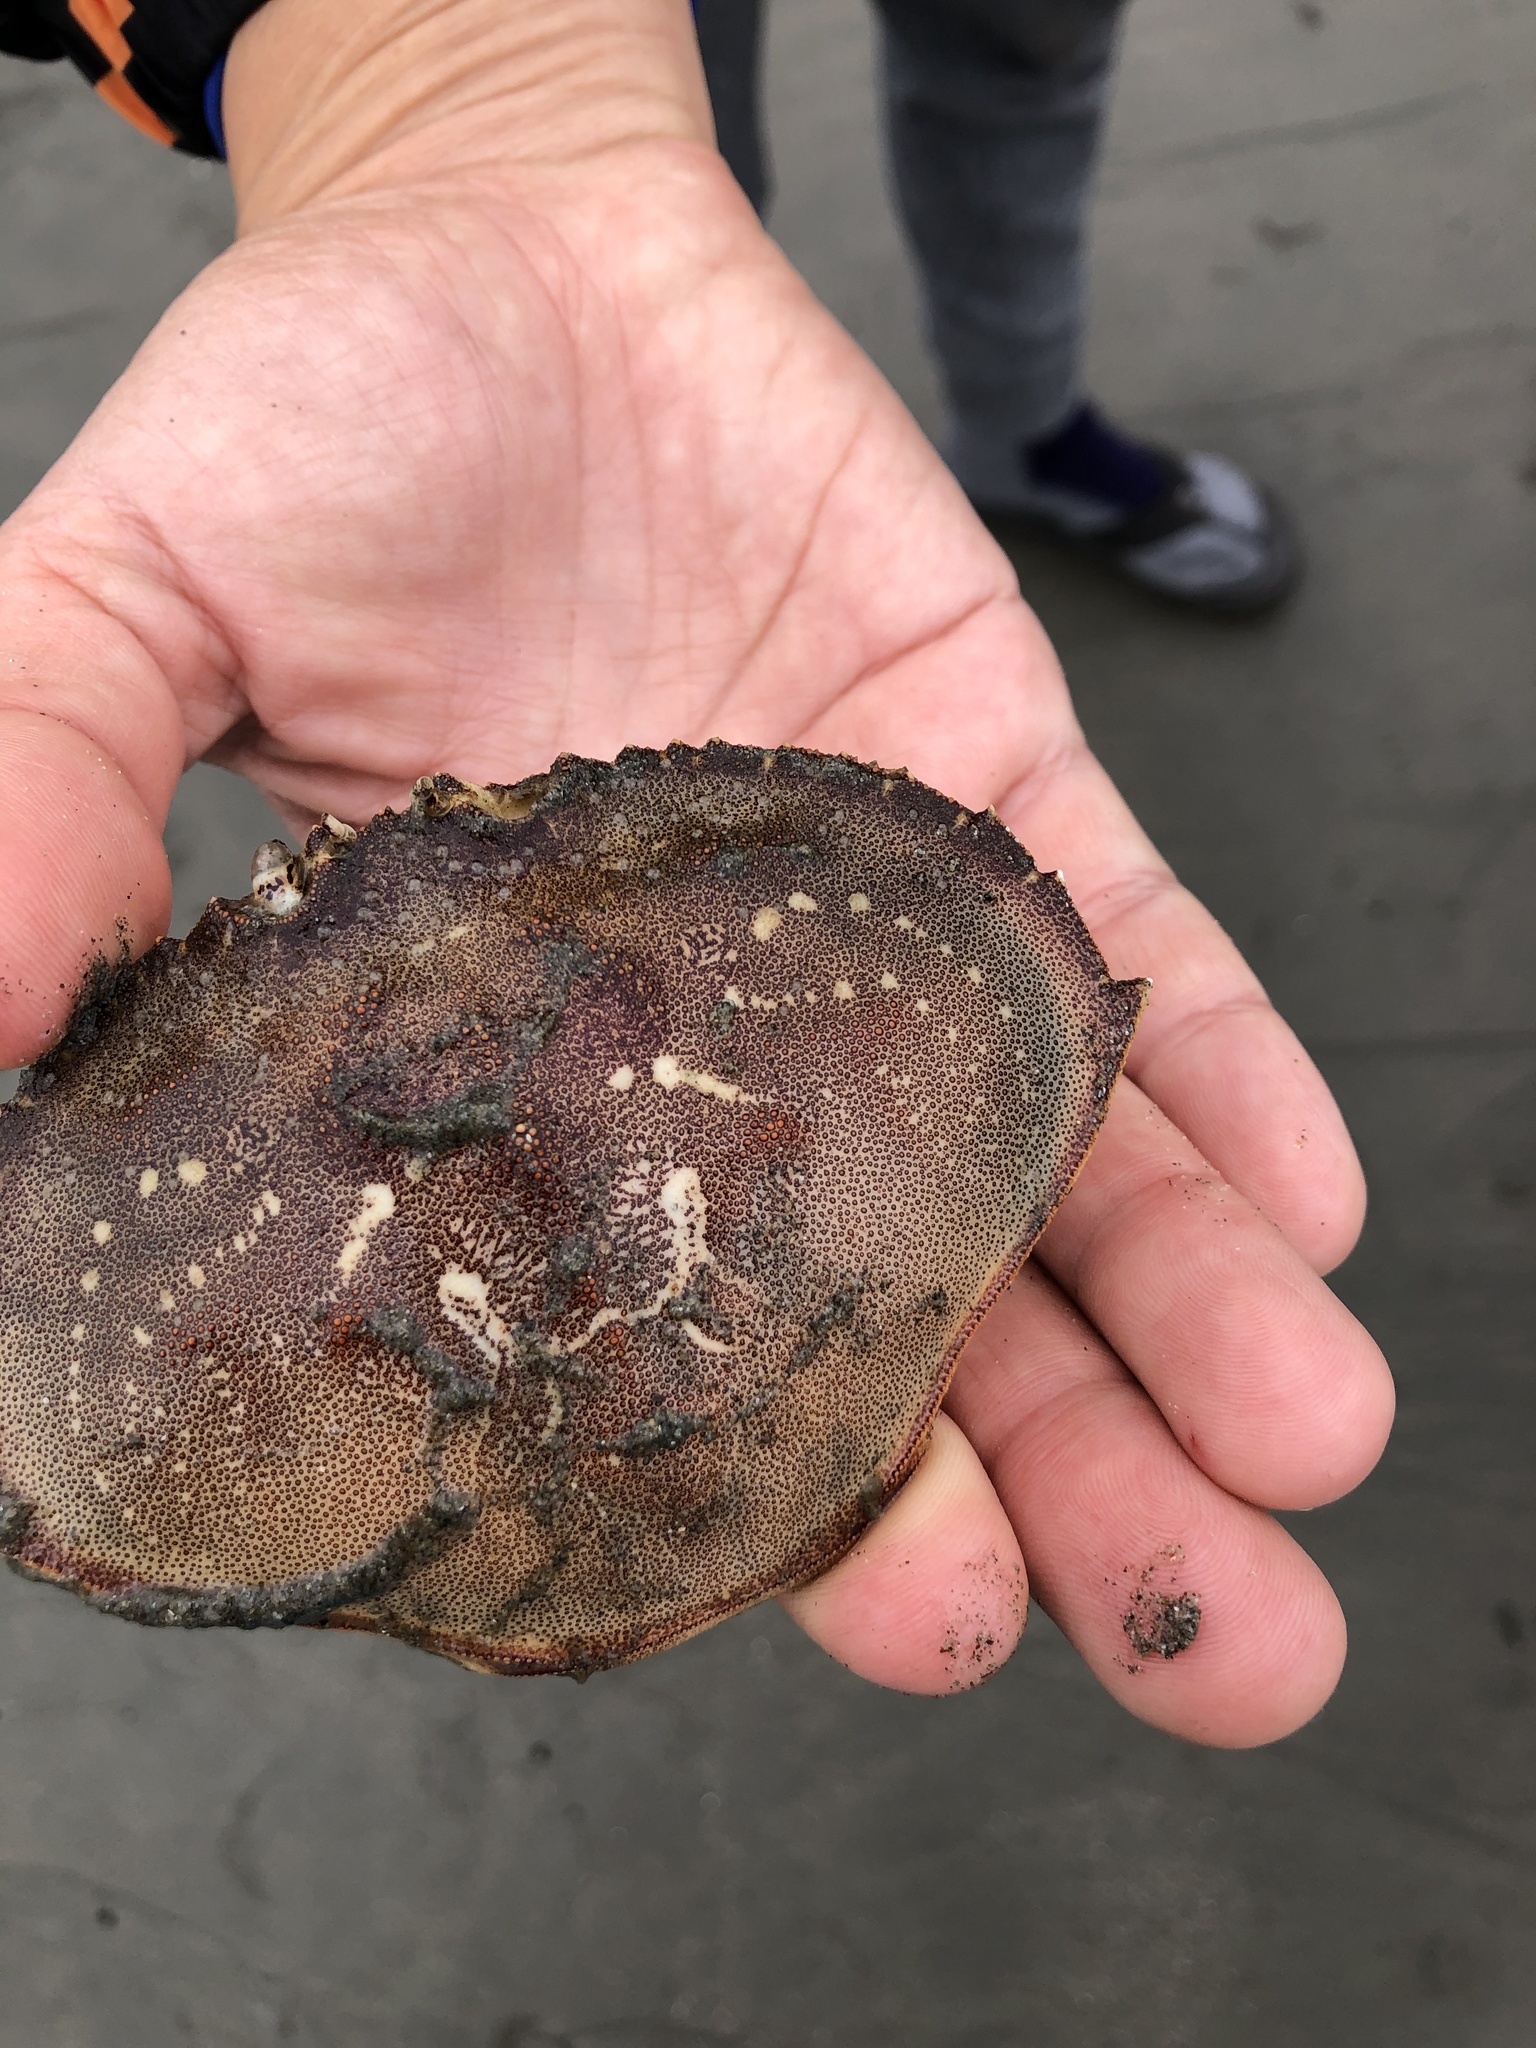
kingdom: Animalia
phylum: Arthropoda
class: Malacostraca
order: Decapoda
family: Cancridae
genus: Metacarcinus
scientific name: Metacarcinus magister
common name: Californian crab
